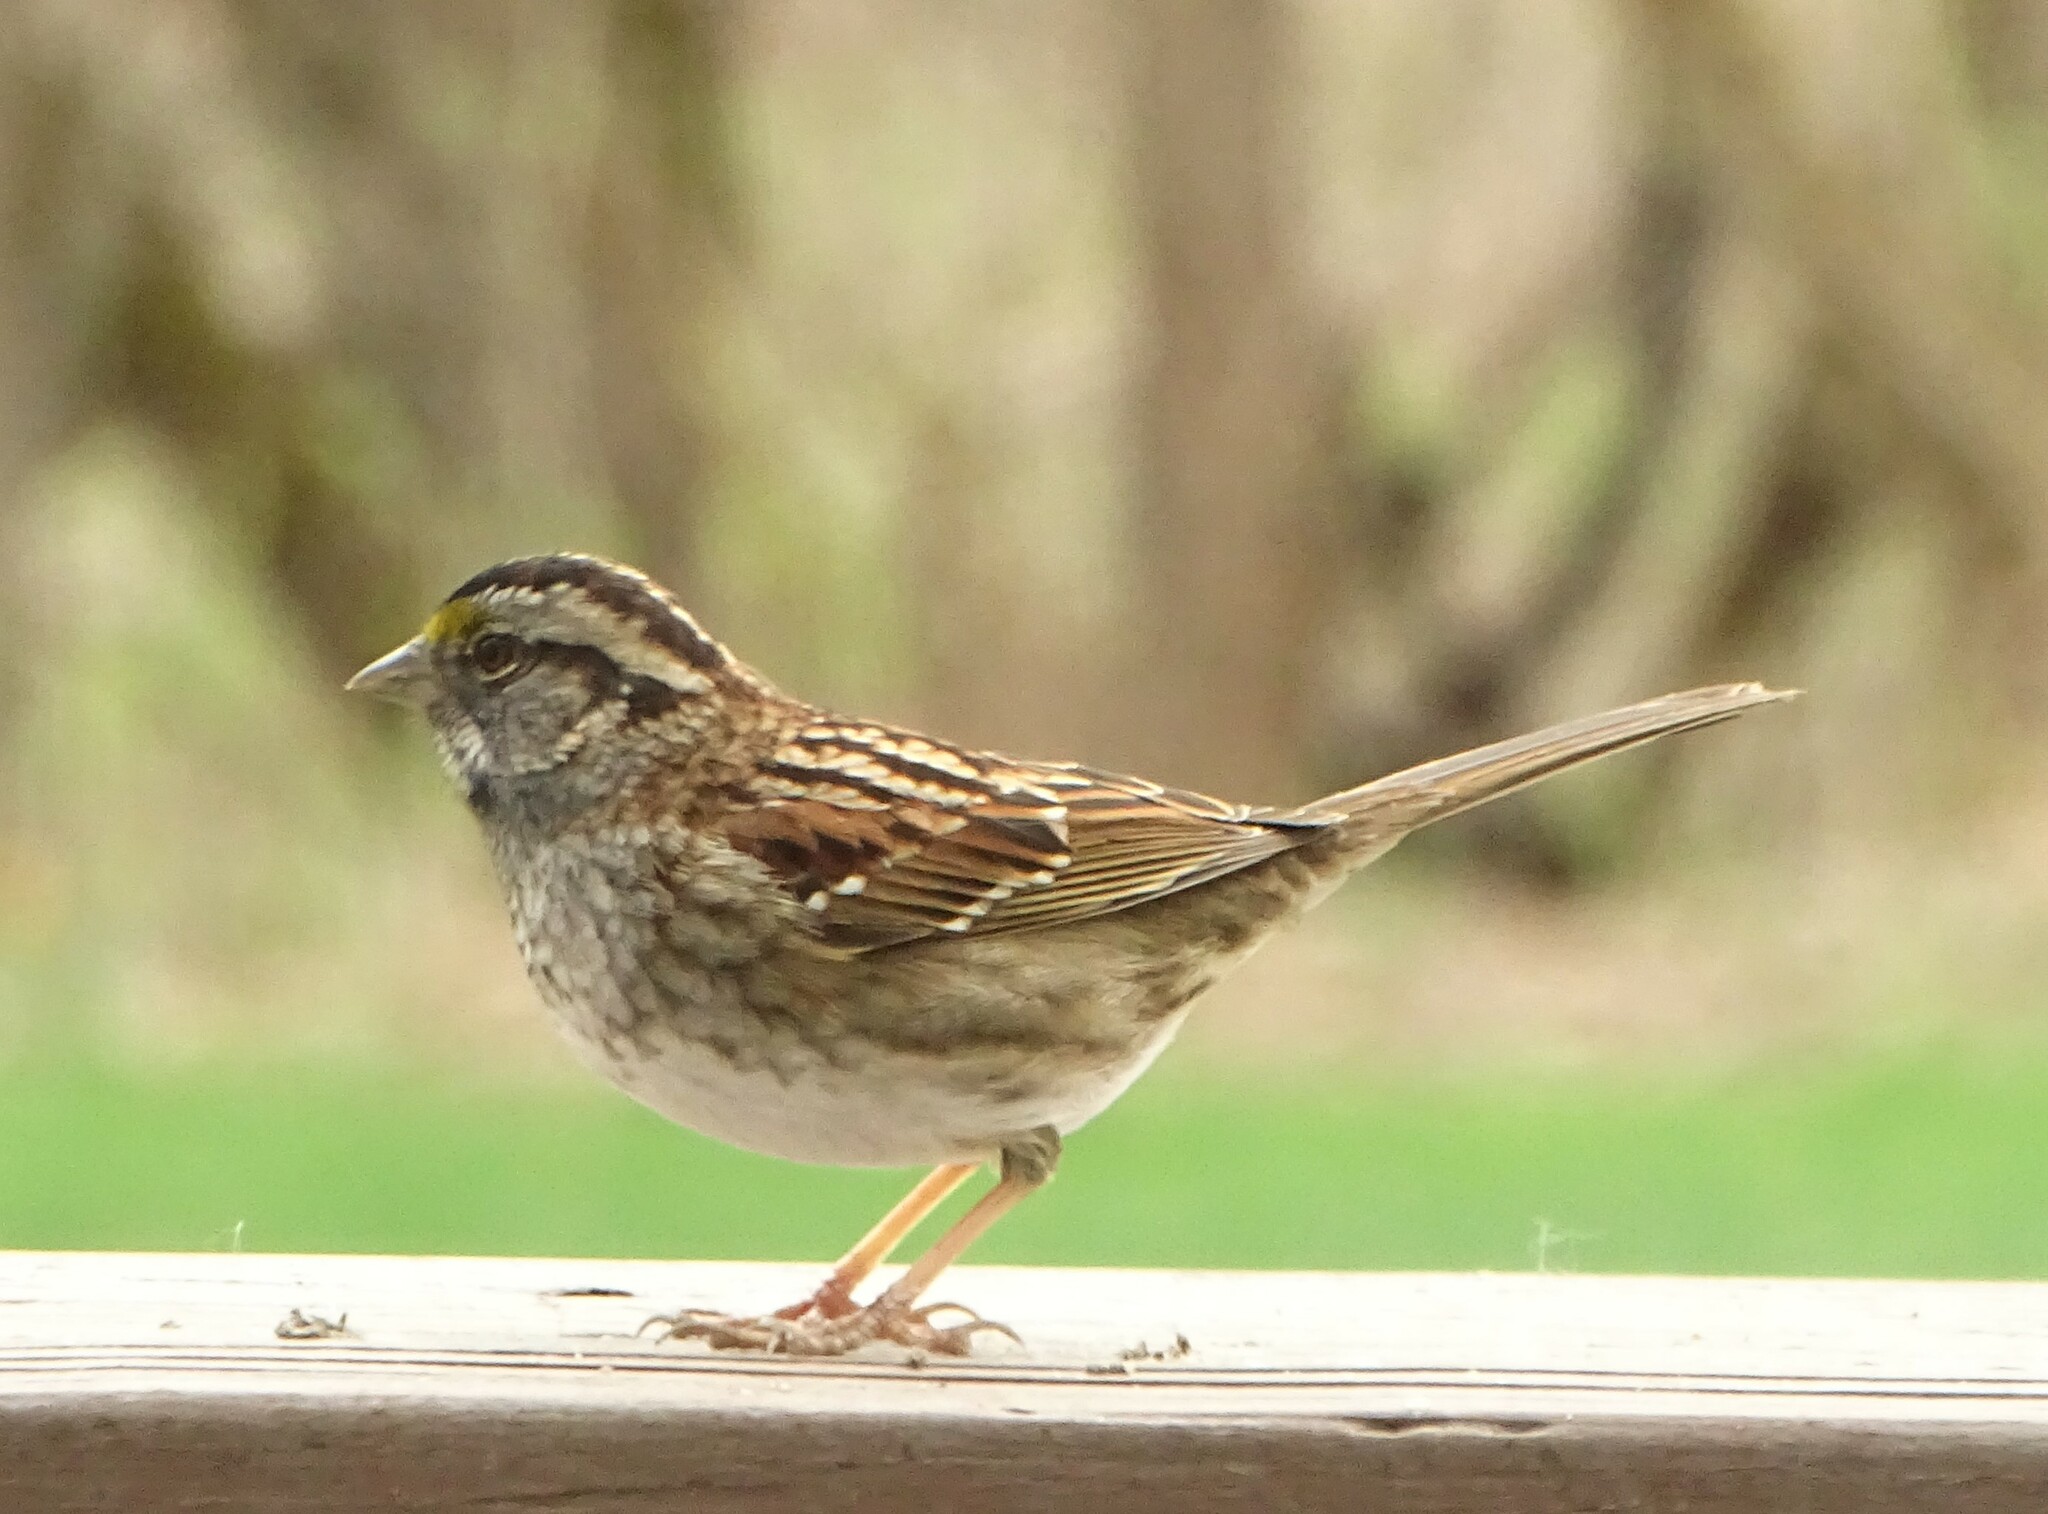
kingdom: Animalia
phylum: Chordata
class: Aves
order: Passeriformes
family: Passerellidae
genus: Zonotrichia
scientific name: Zonotrichia albicollis
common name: White-throated sparrow
